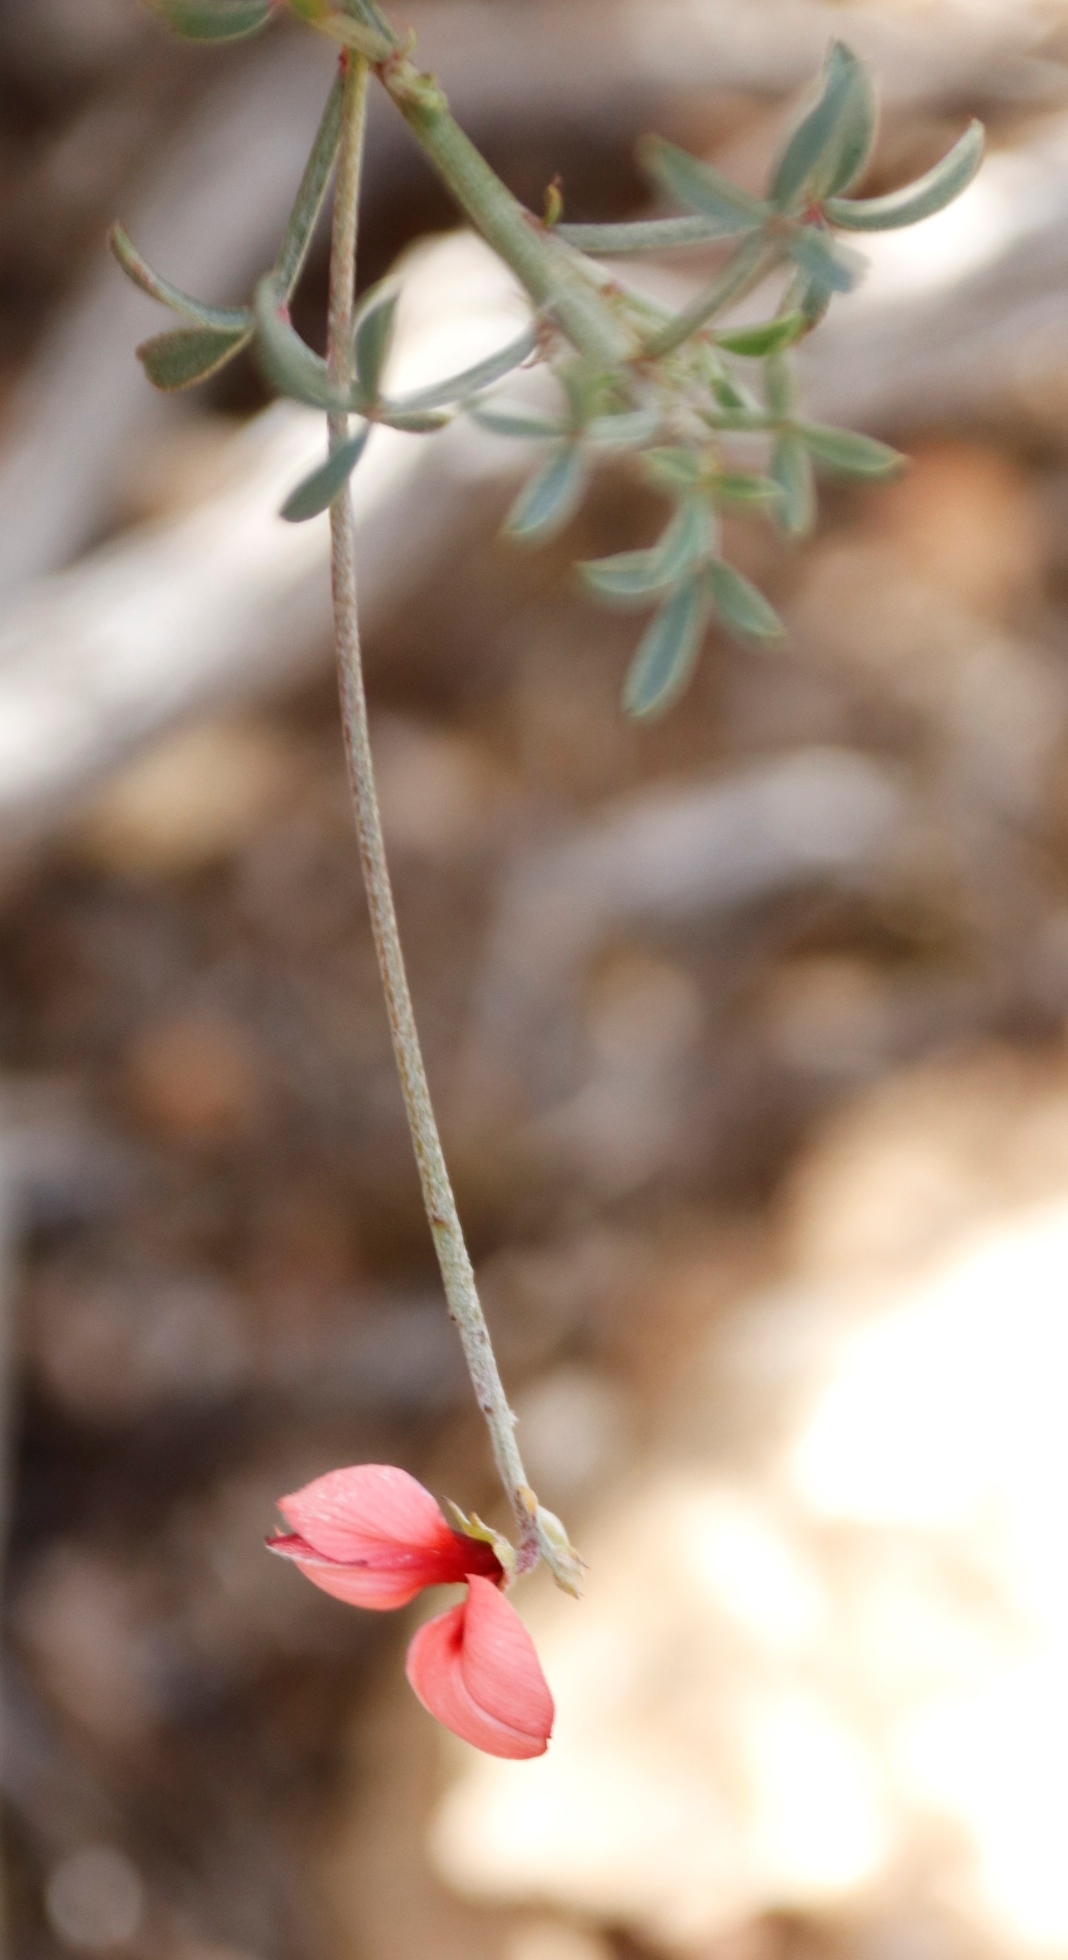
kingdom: Plantae
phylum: Tracheophyta
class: Magnoliopsida
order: Fabales
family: Fabaceae
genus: Indigofera
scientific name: Indigofera heterophylla
